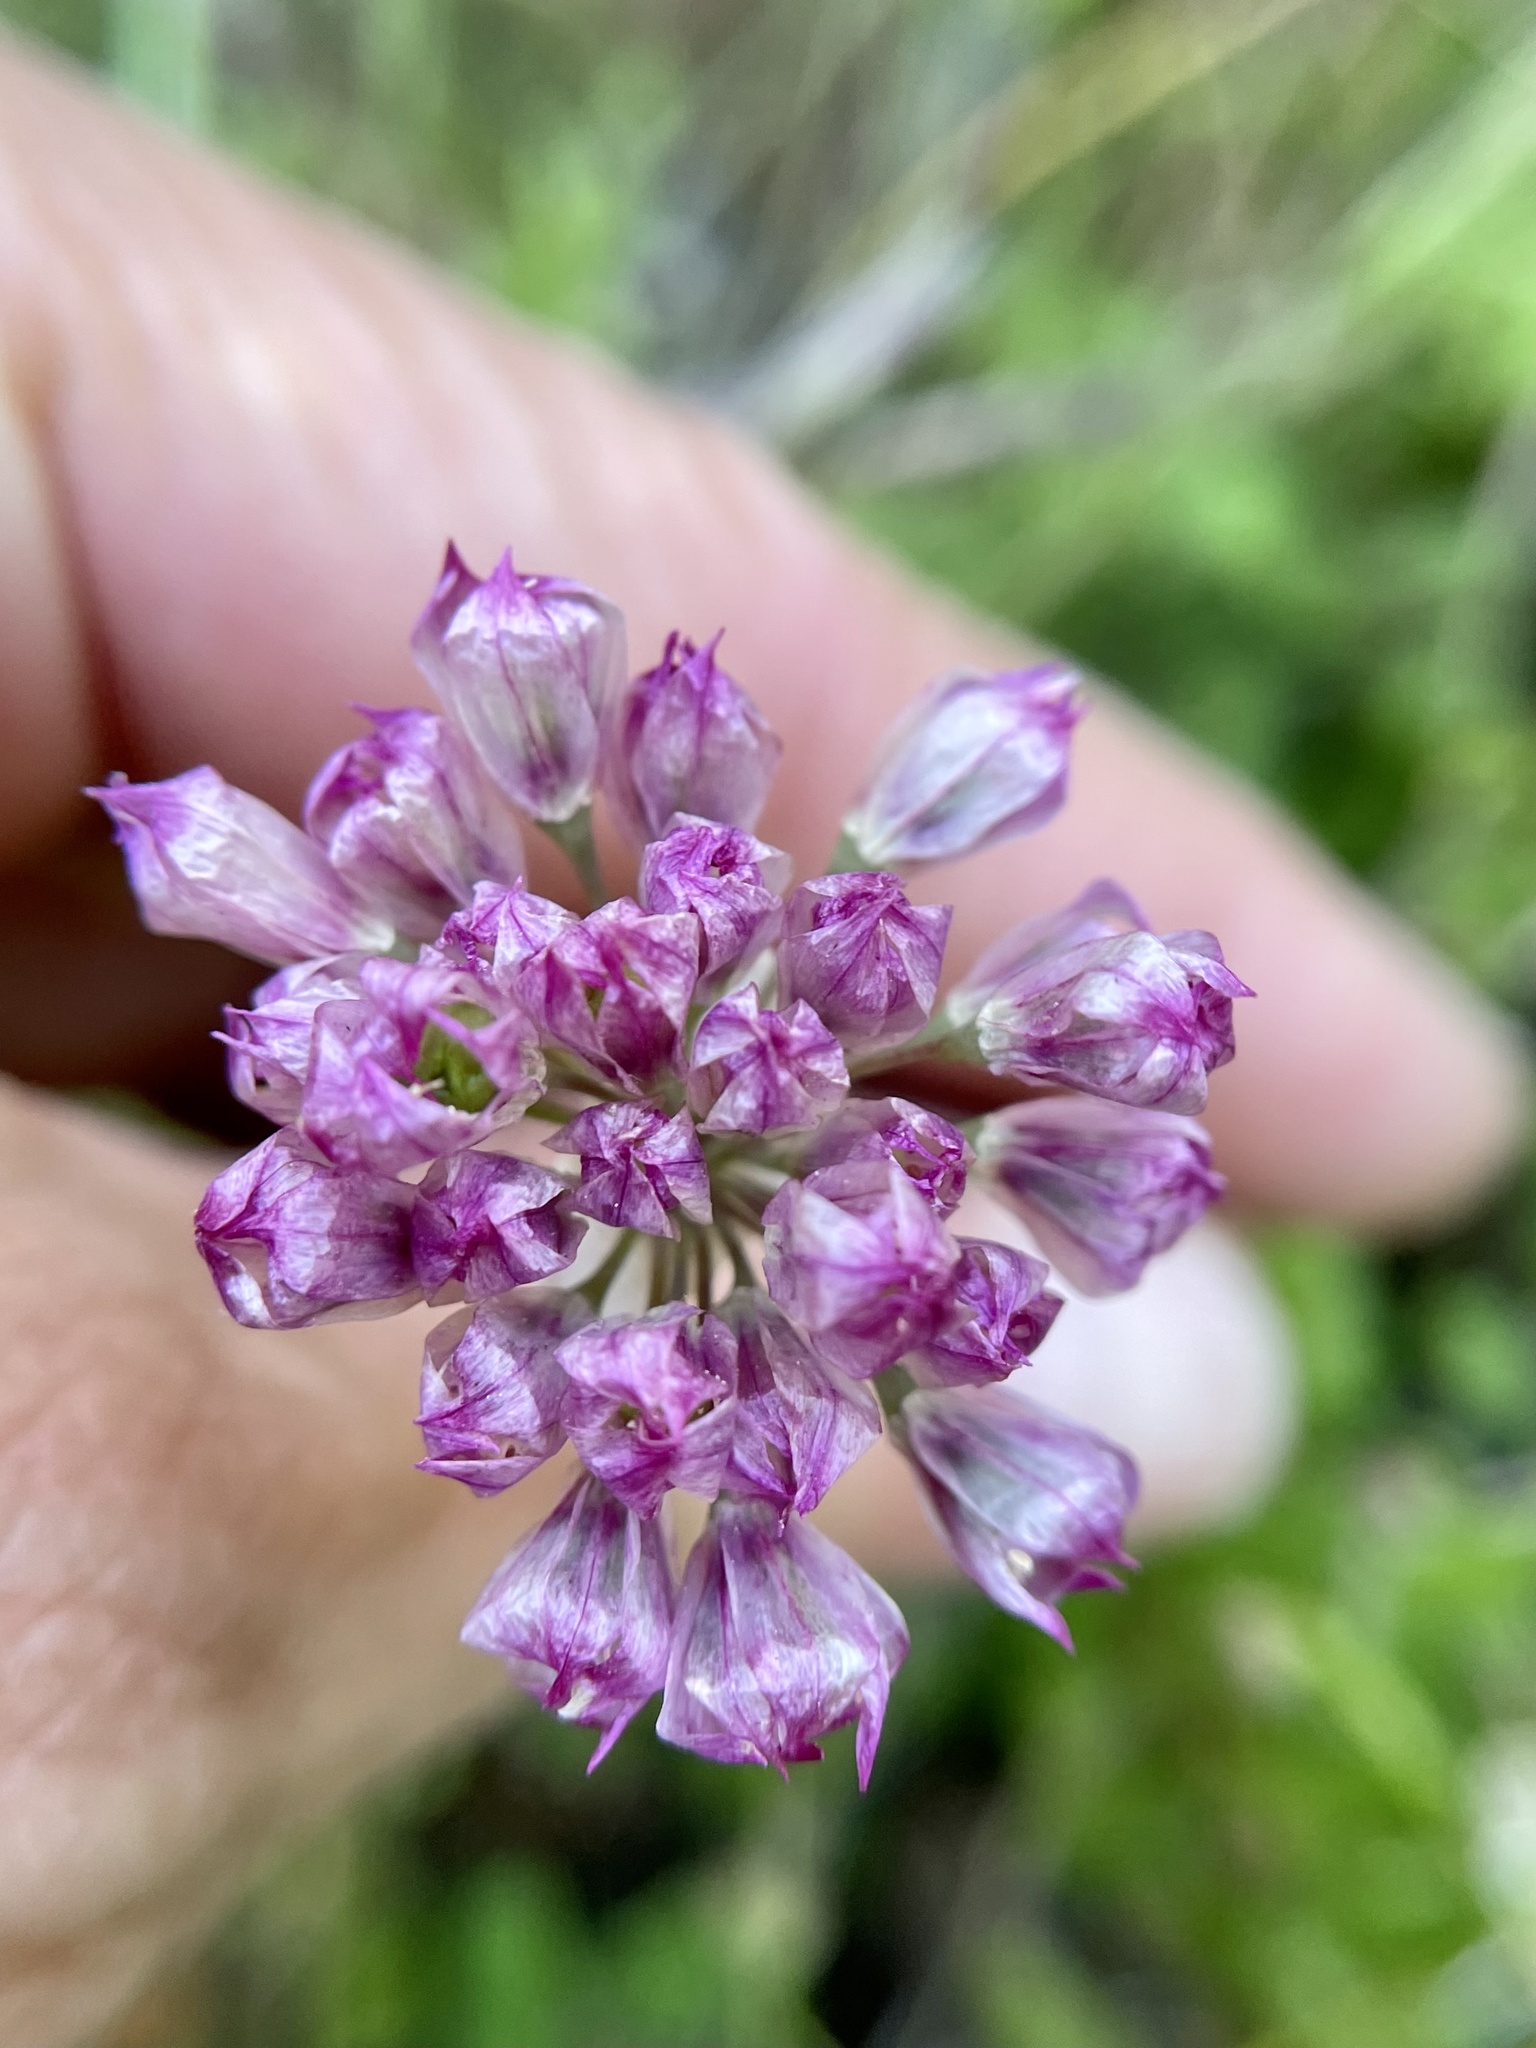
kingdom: Plantae
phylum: Tracheophyta
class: Liliopsida
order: Asparagales
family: Amaryllidaceae
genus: Allium
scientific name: Allium serra
